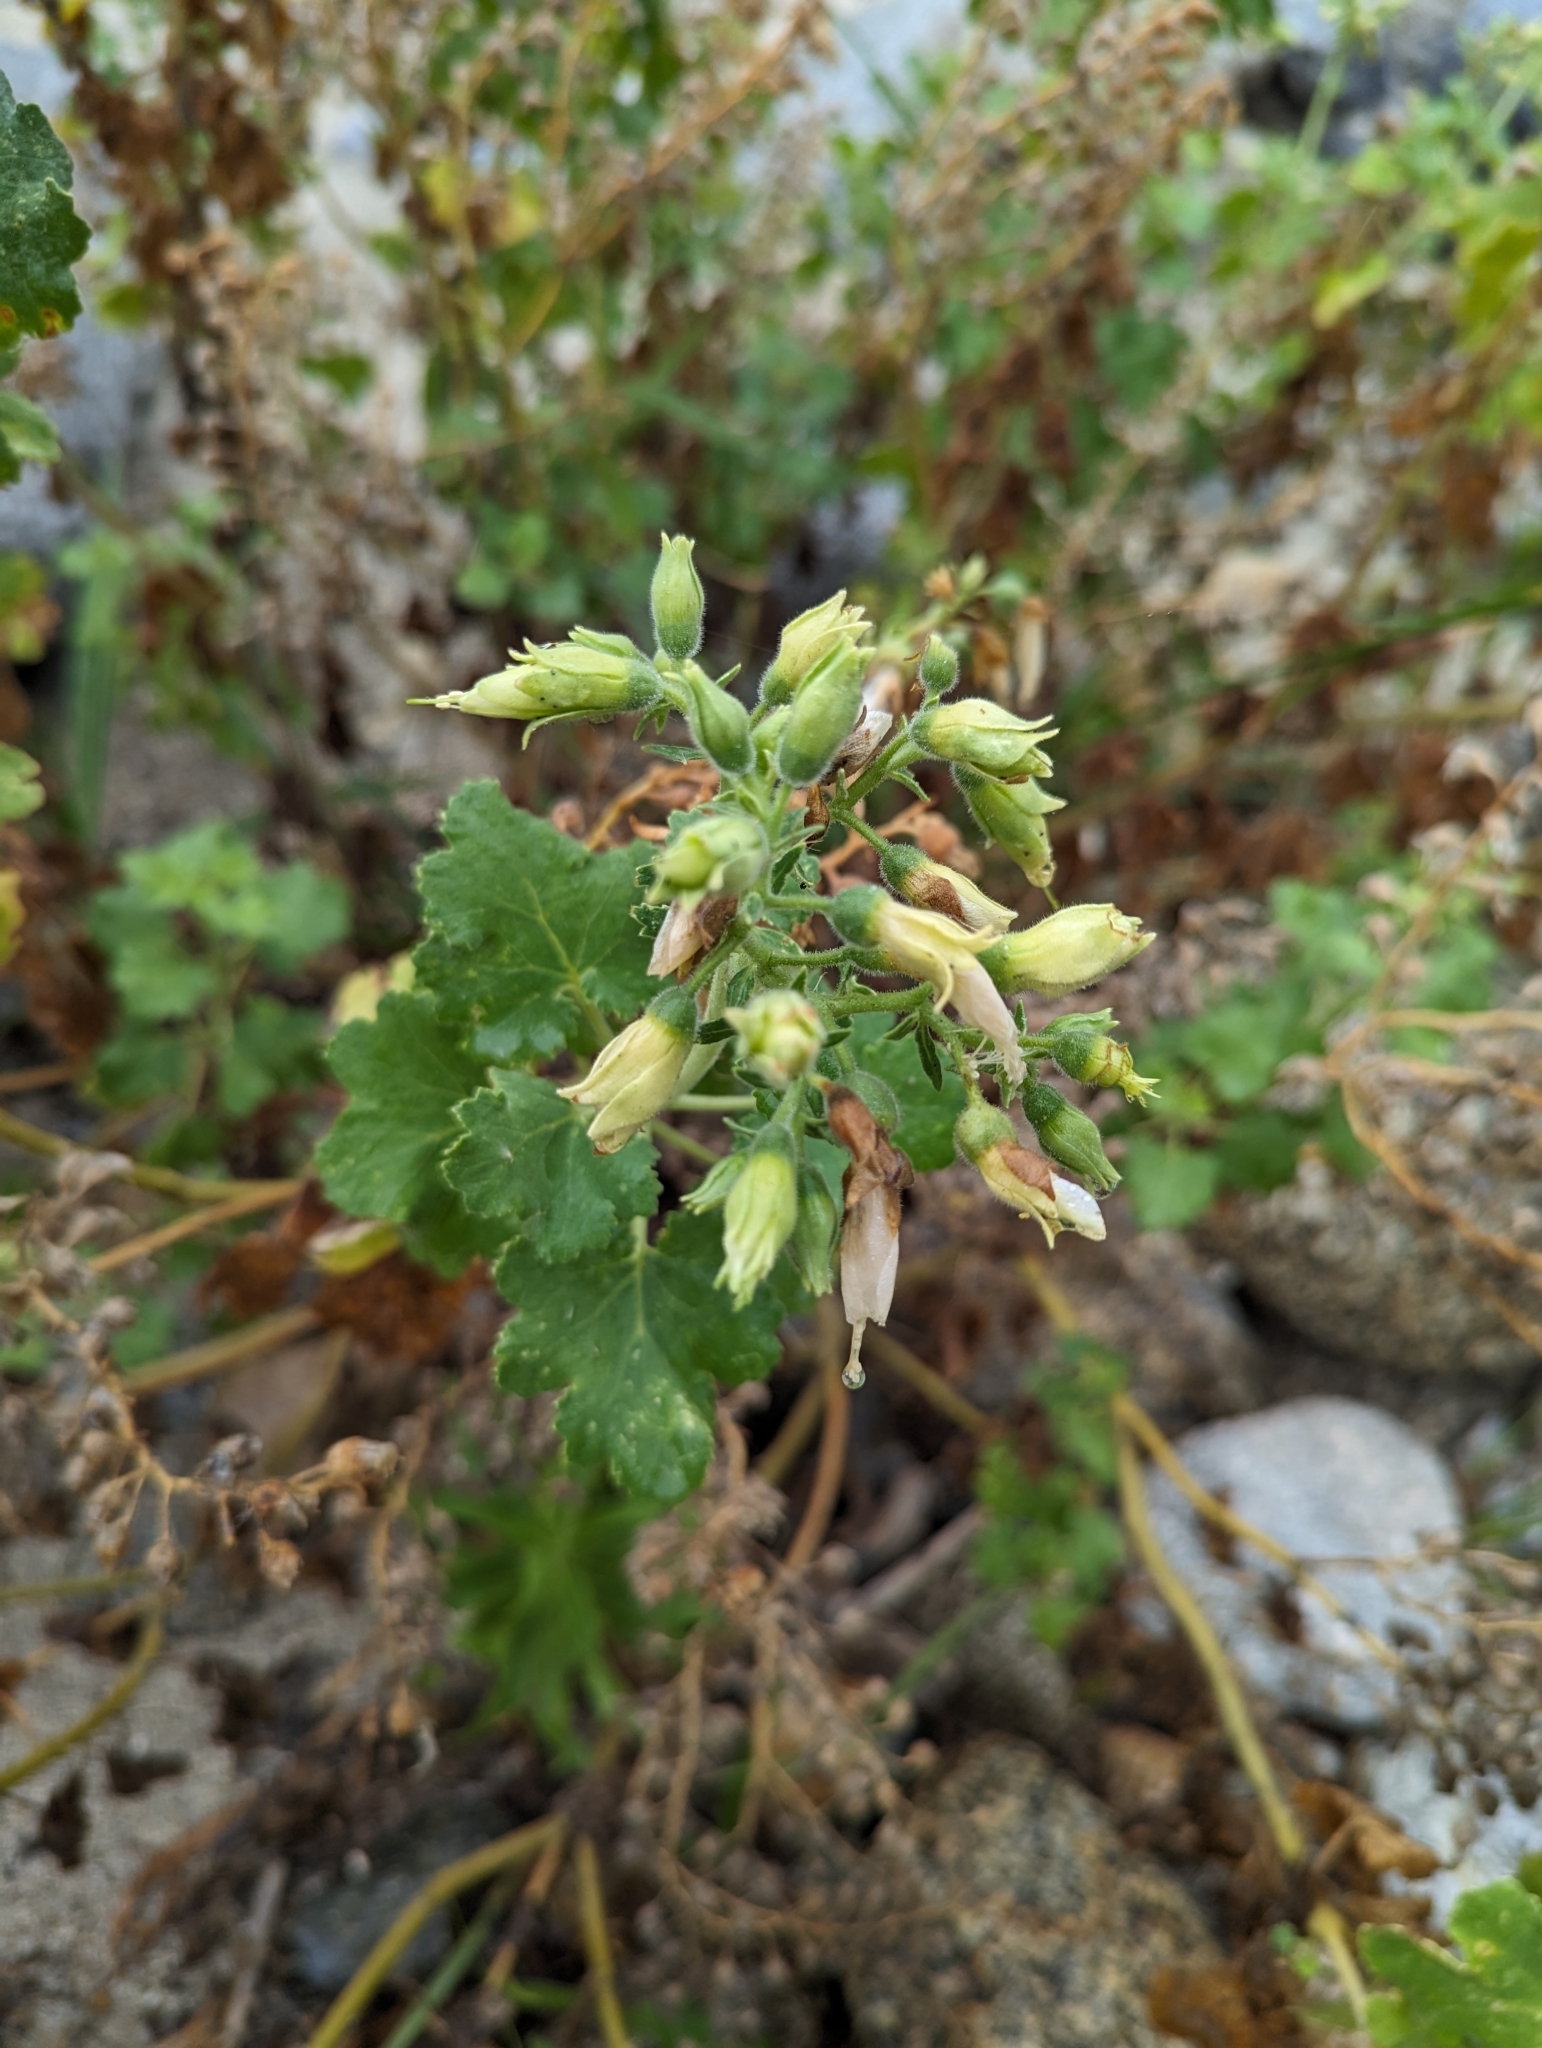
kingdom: Plantae
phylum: Tracheophyta
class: Magnoliopsida
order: Cornales
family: Loasaceae
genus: Eucnide
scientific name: Eucnide cordata
